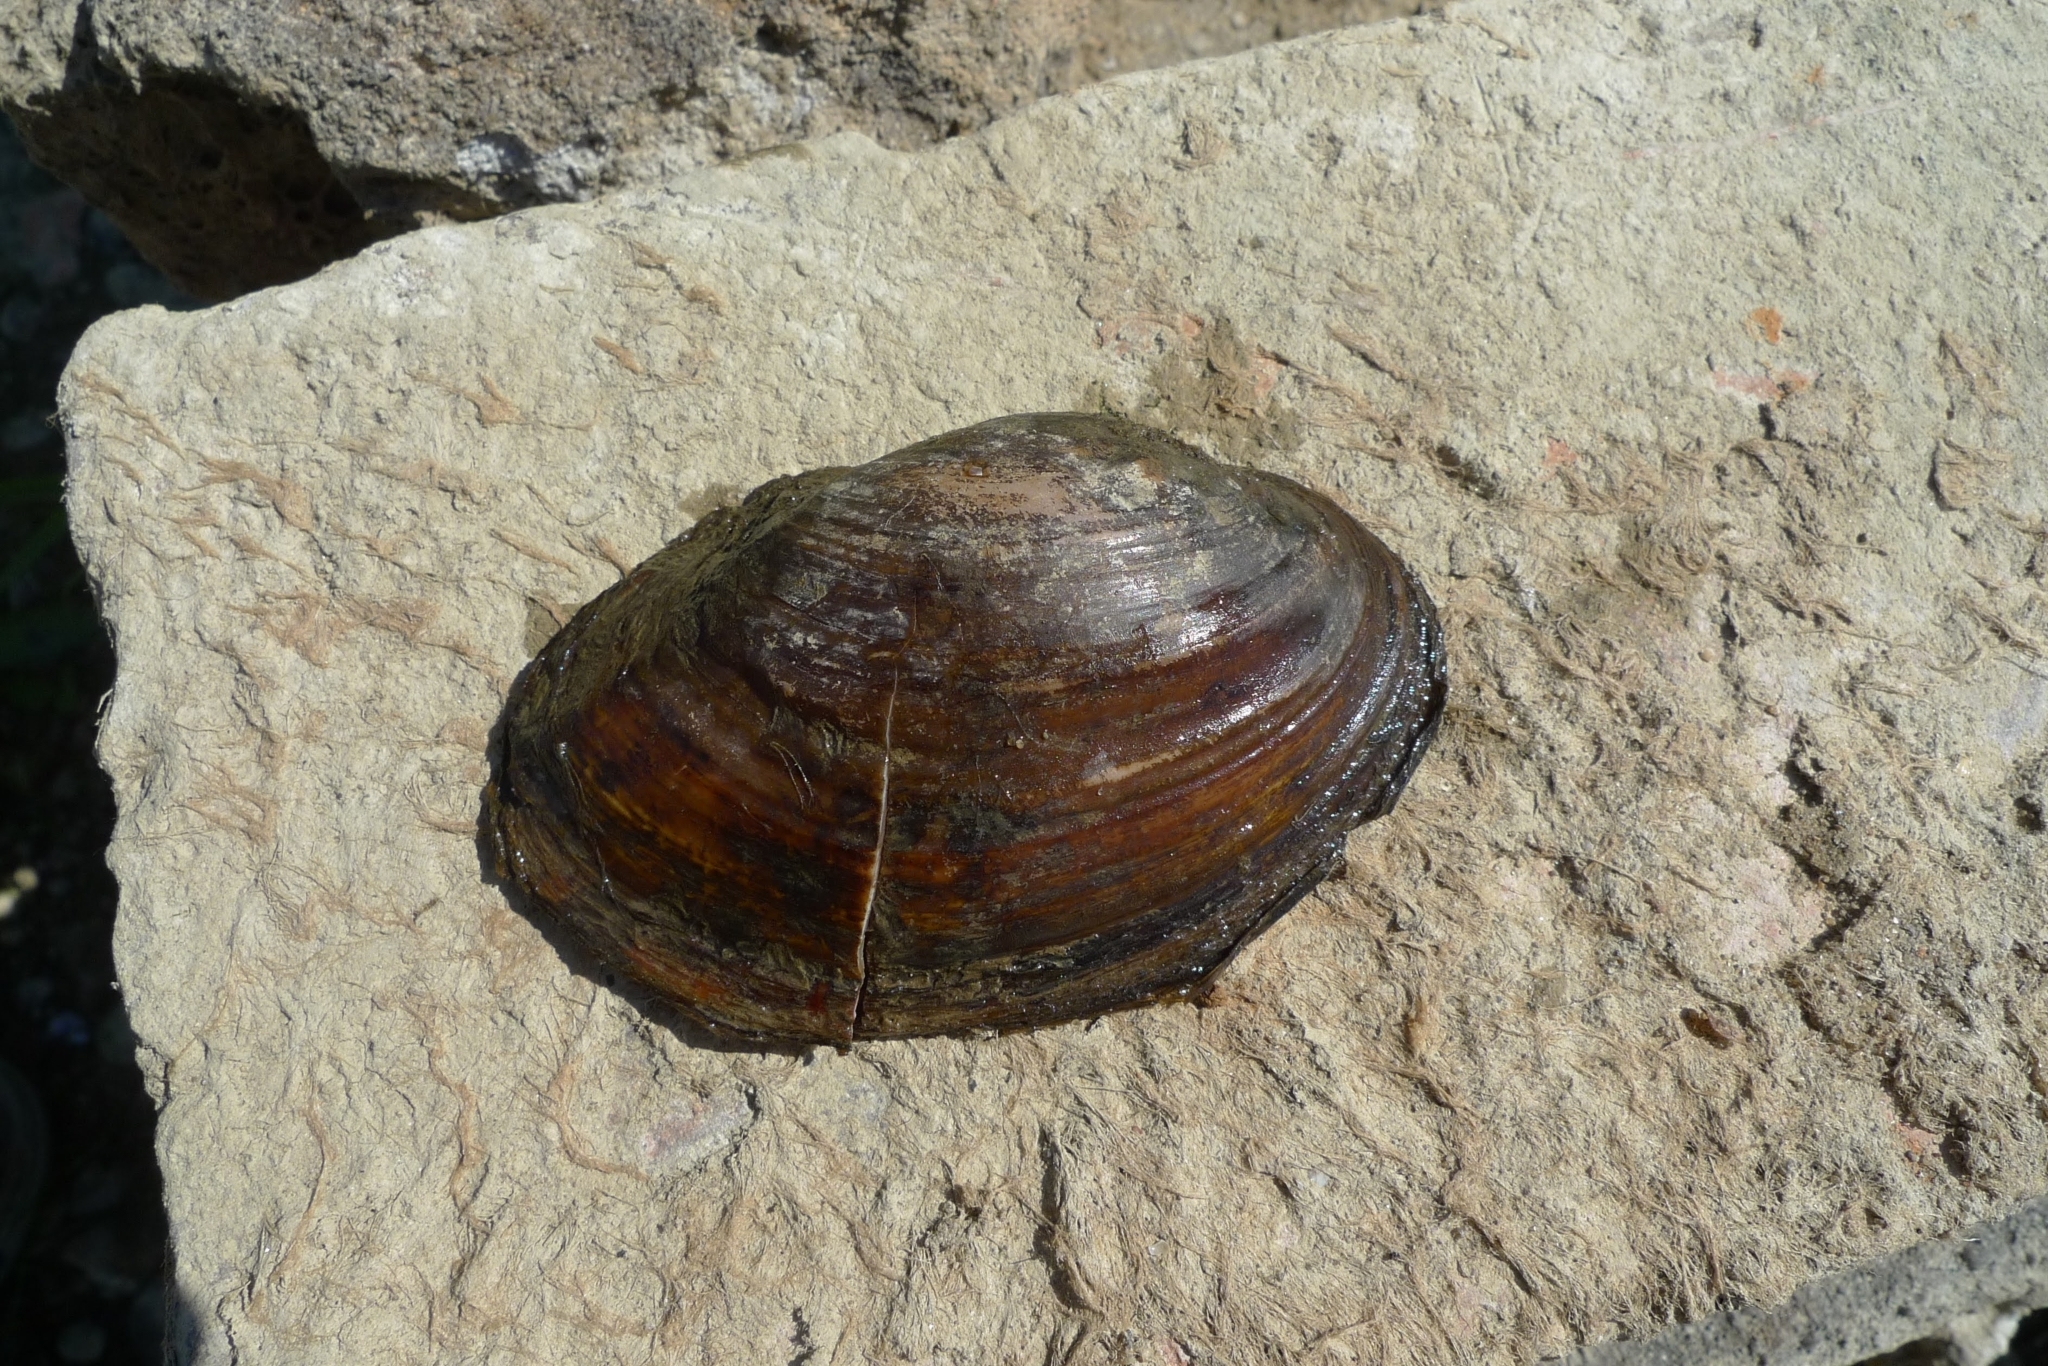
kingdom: Animalia
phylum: Mollusca
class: Bivalvia
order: Unionida
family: Unionidae
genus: Sinanodonta
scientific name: Sinanodonta woodiana
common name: Chinese pond mussel
